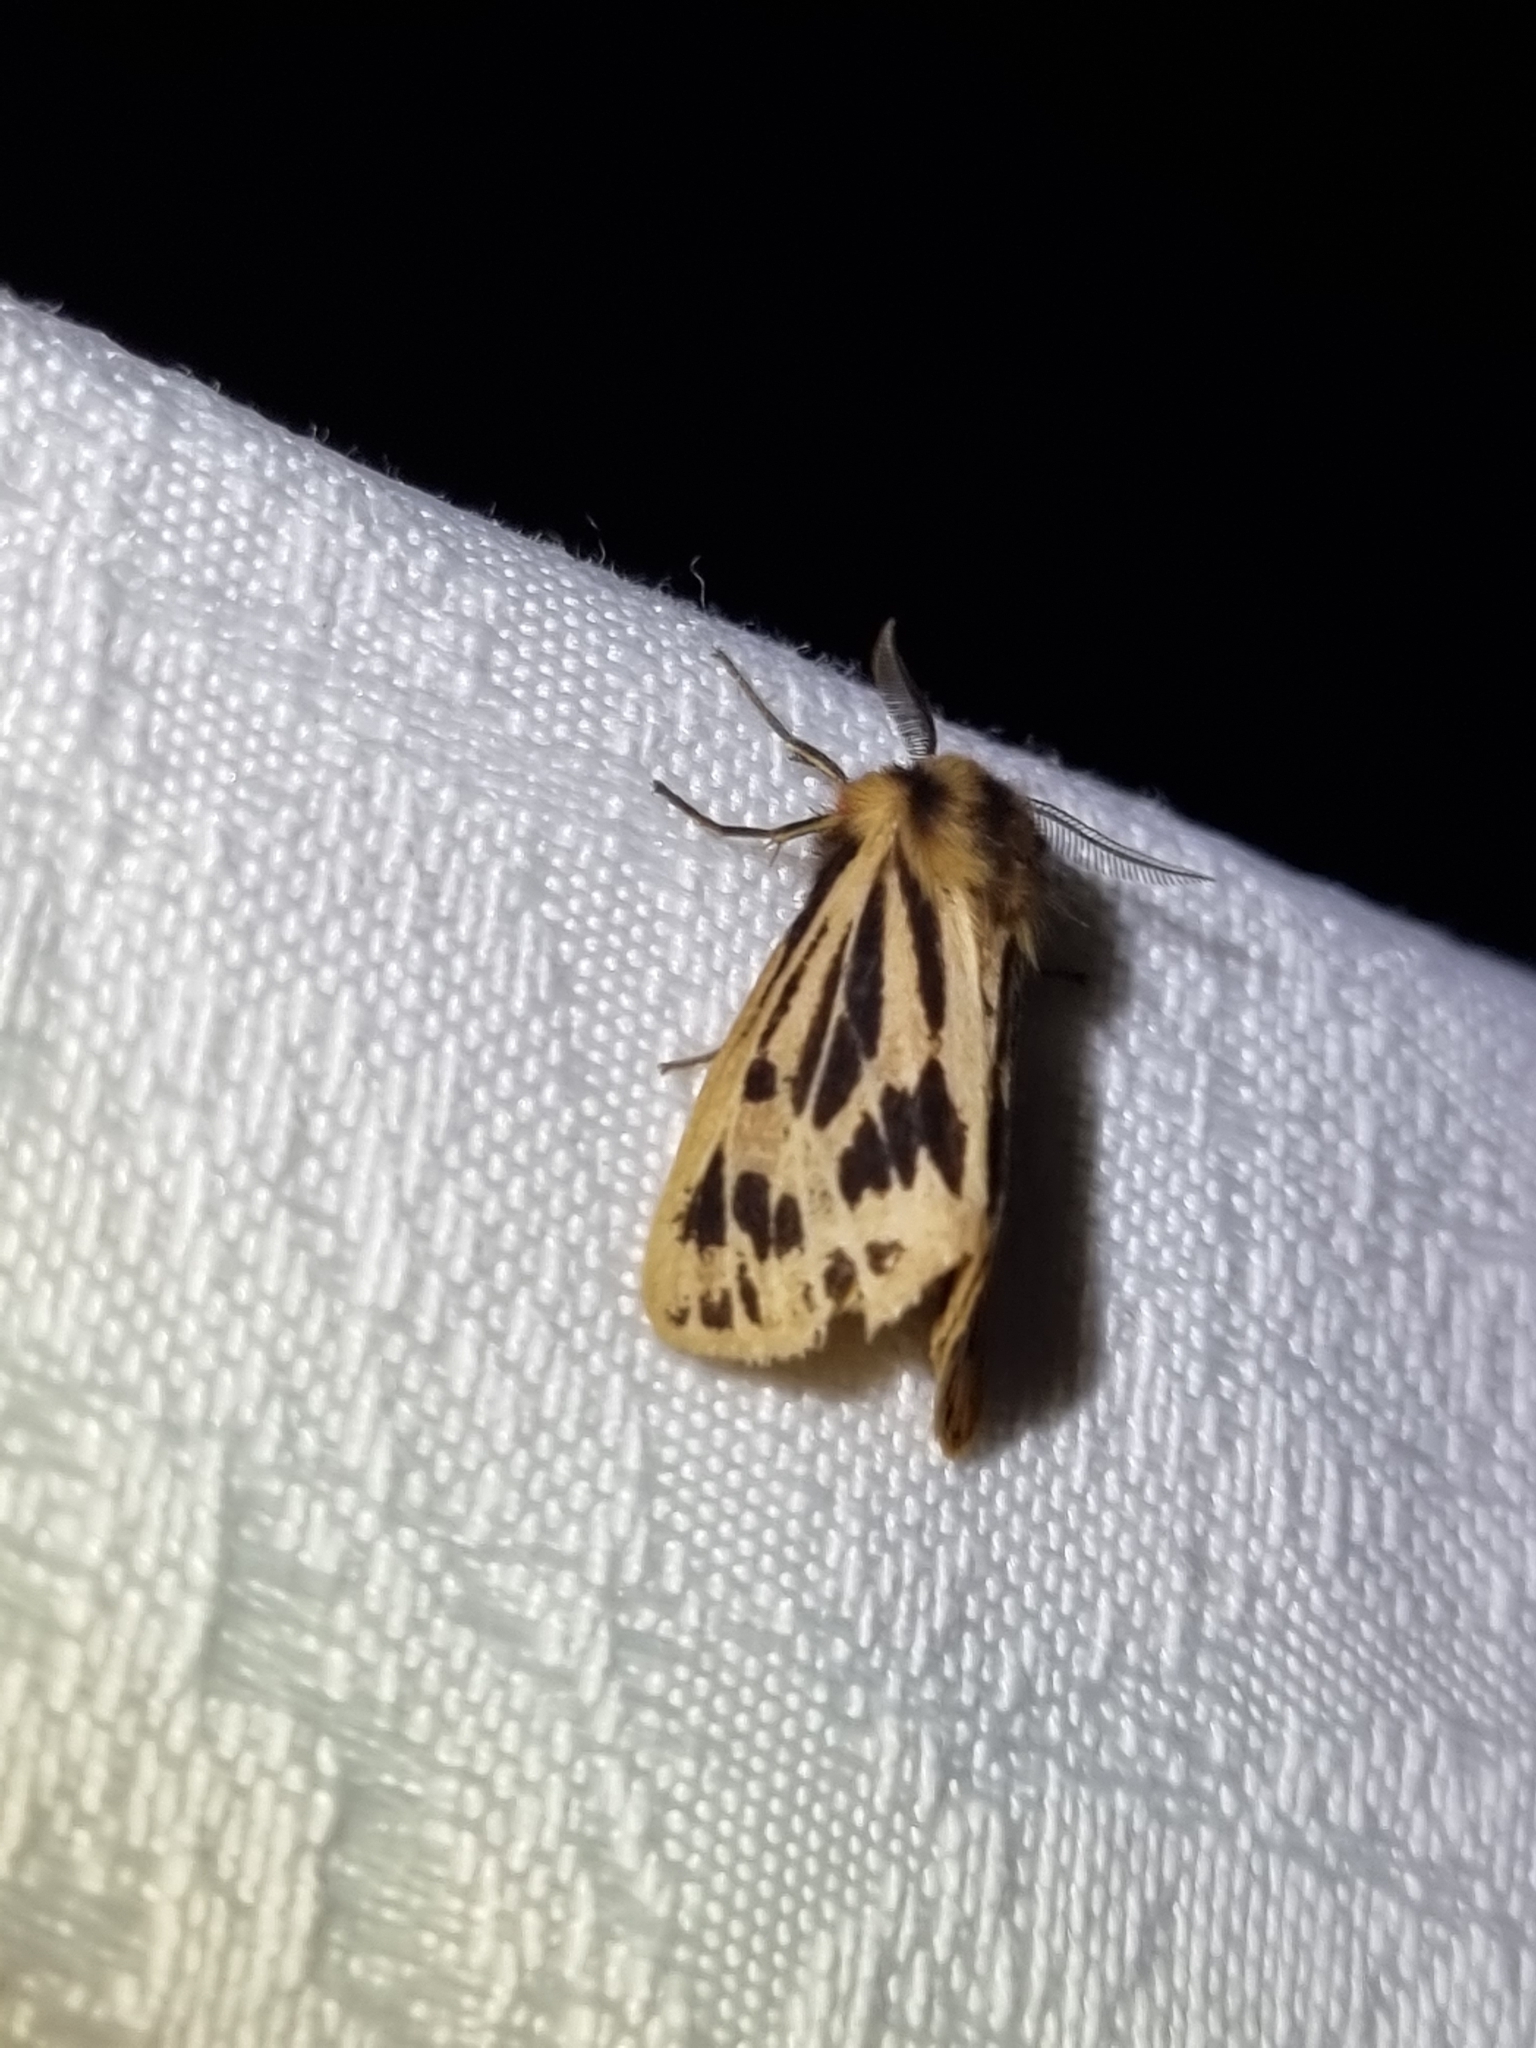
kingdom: Animalia
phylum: Arthropoda
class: Insecta
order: Lepidoptera
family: Erebidae
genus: Ardices
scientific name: Ardices curvata
